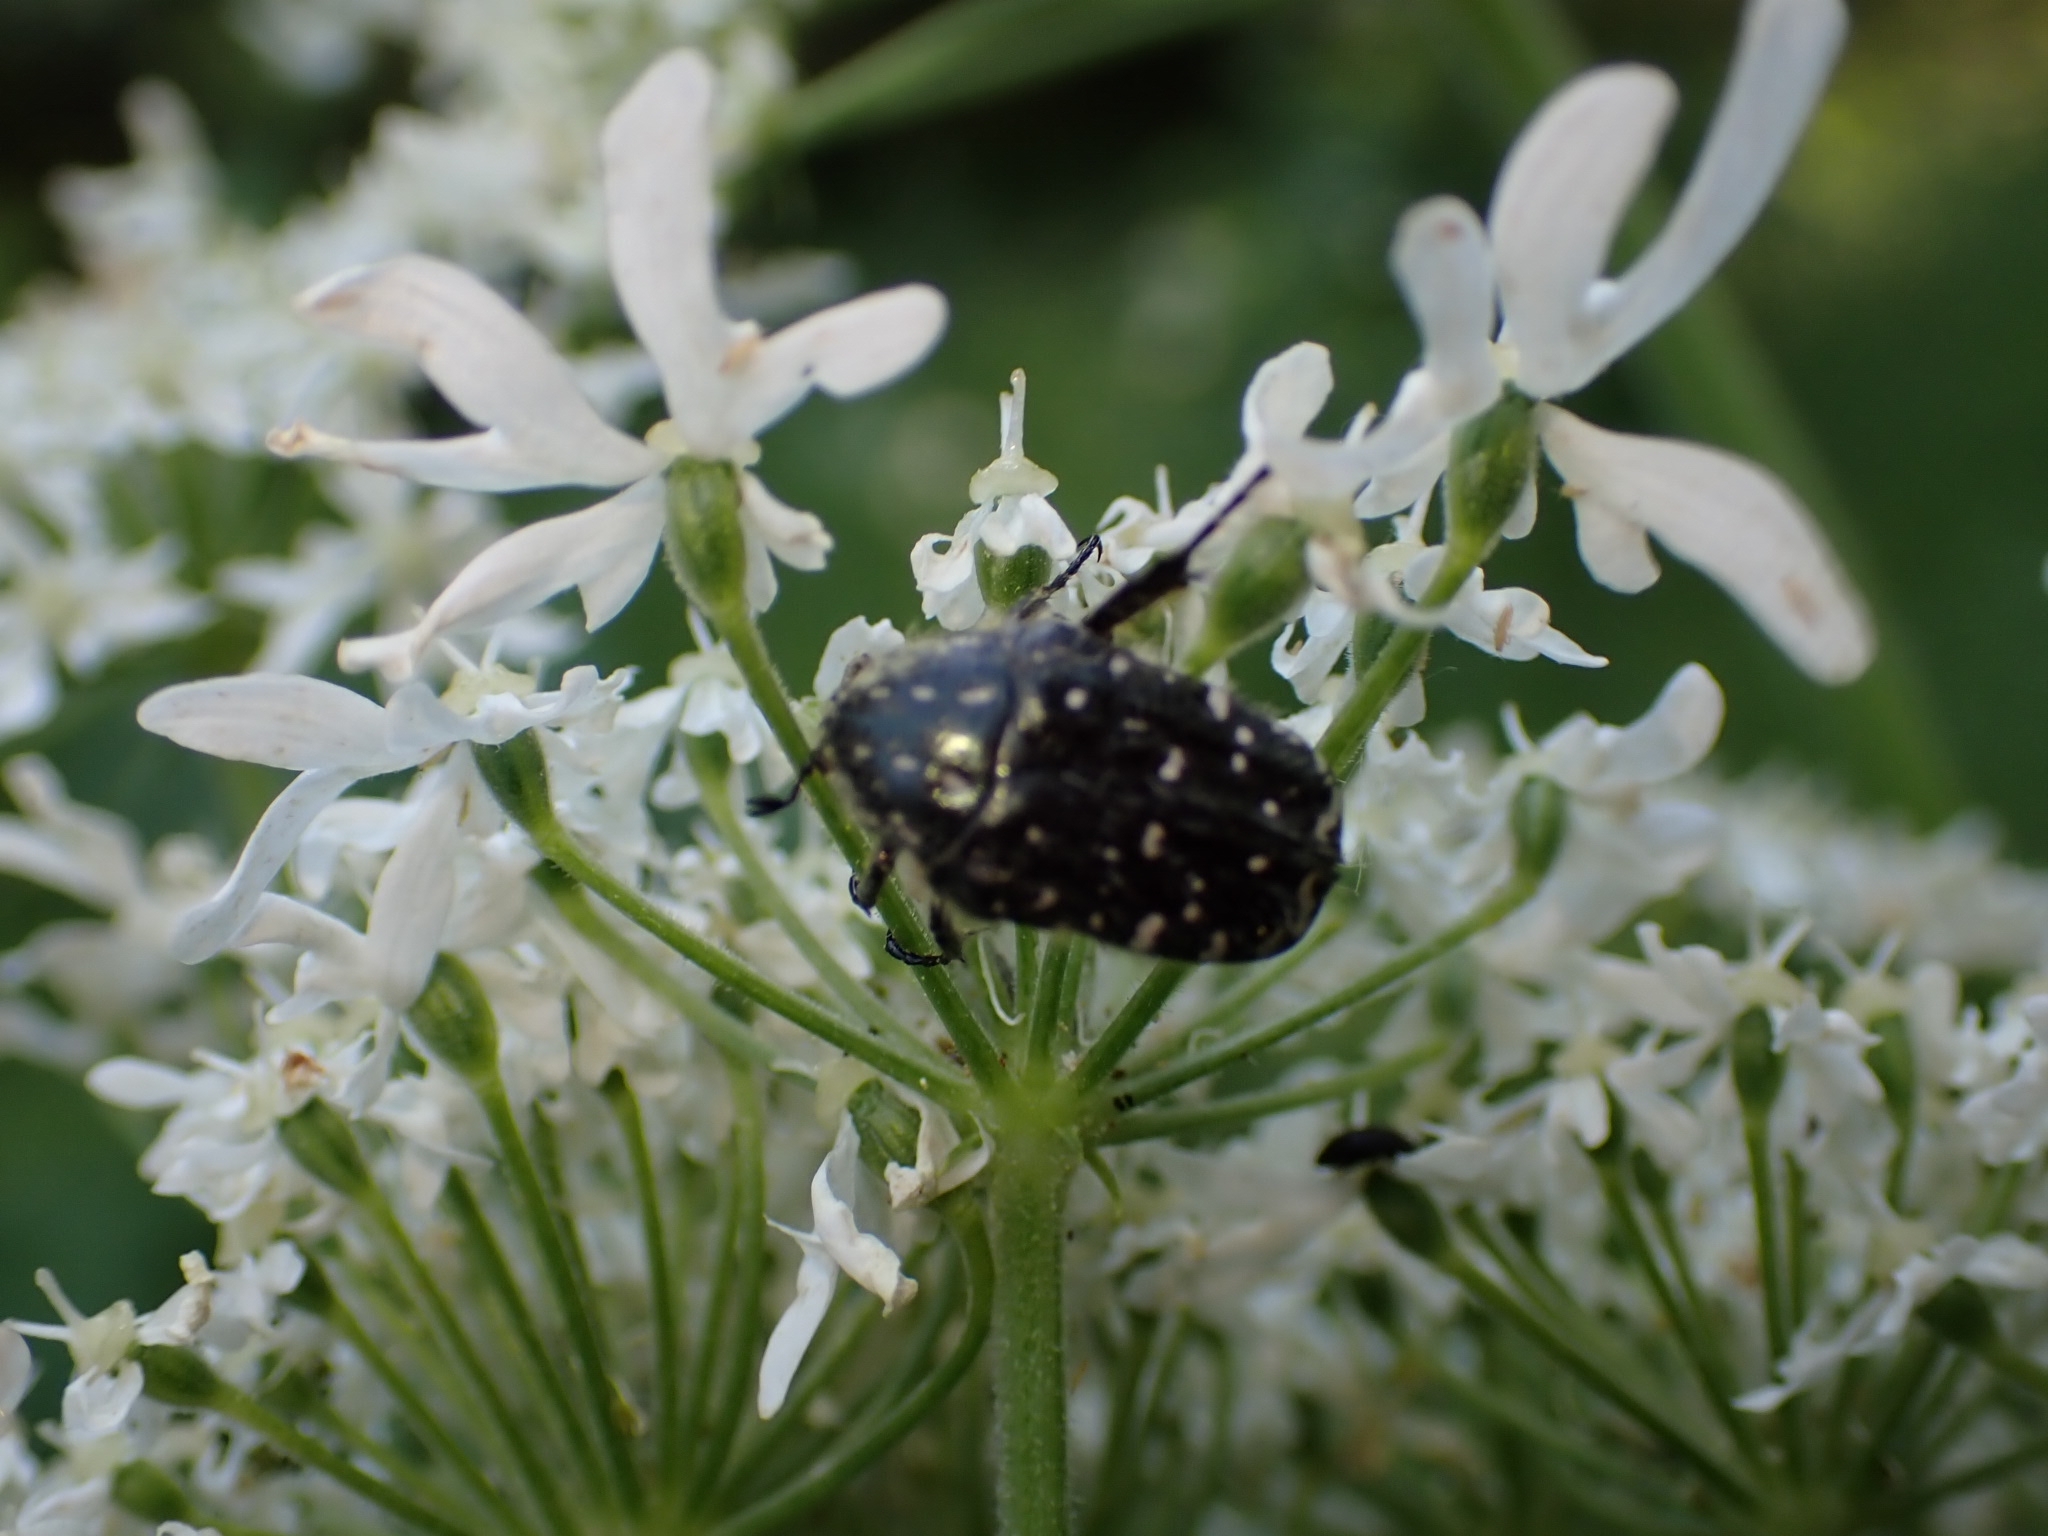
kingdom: Animalia
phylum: Arthropoda
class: Insecta
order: Coleoptera
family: Scarabaeidae
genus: Oxythyrea
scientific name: Oxythyrea funesta
